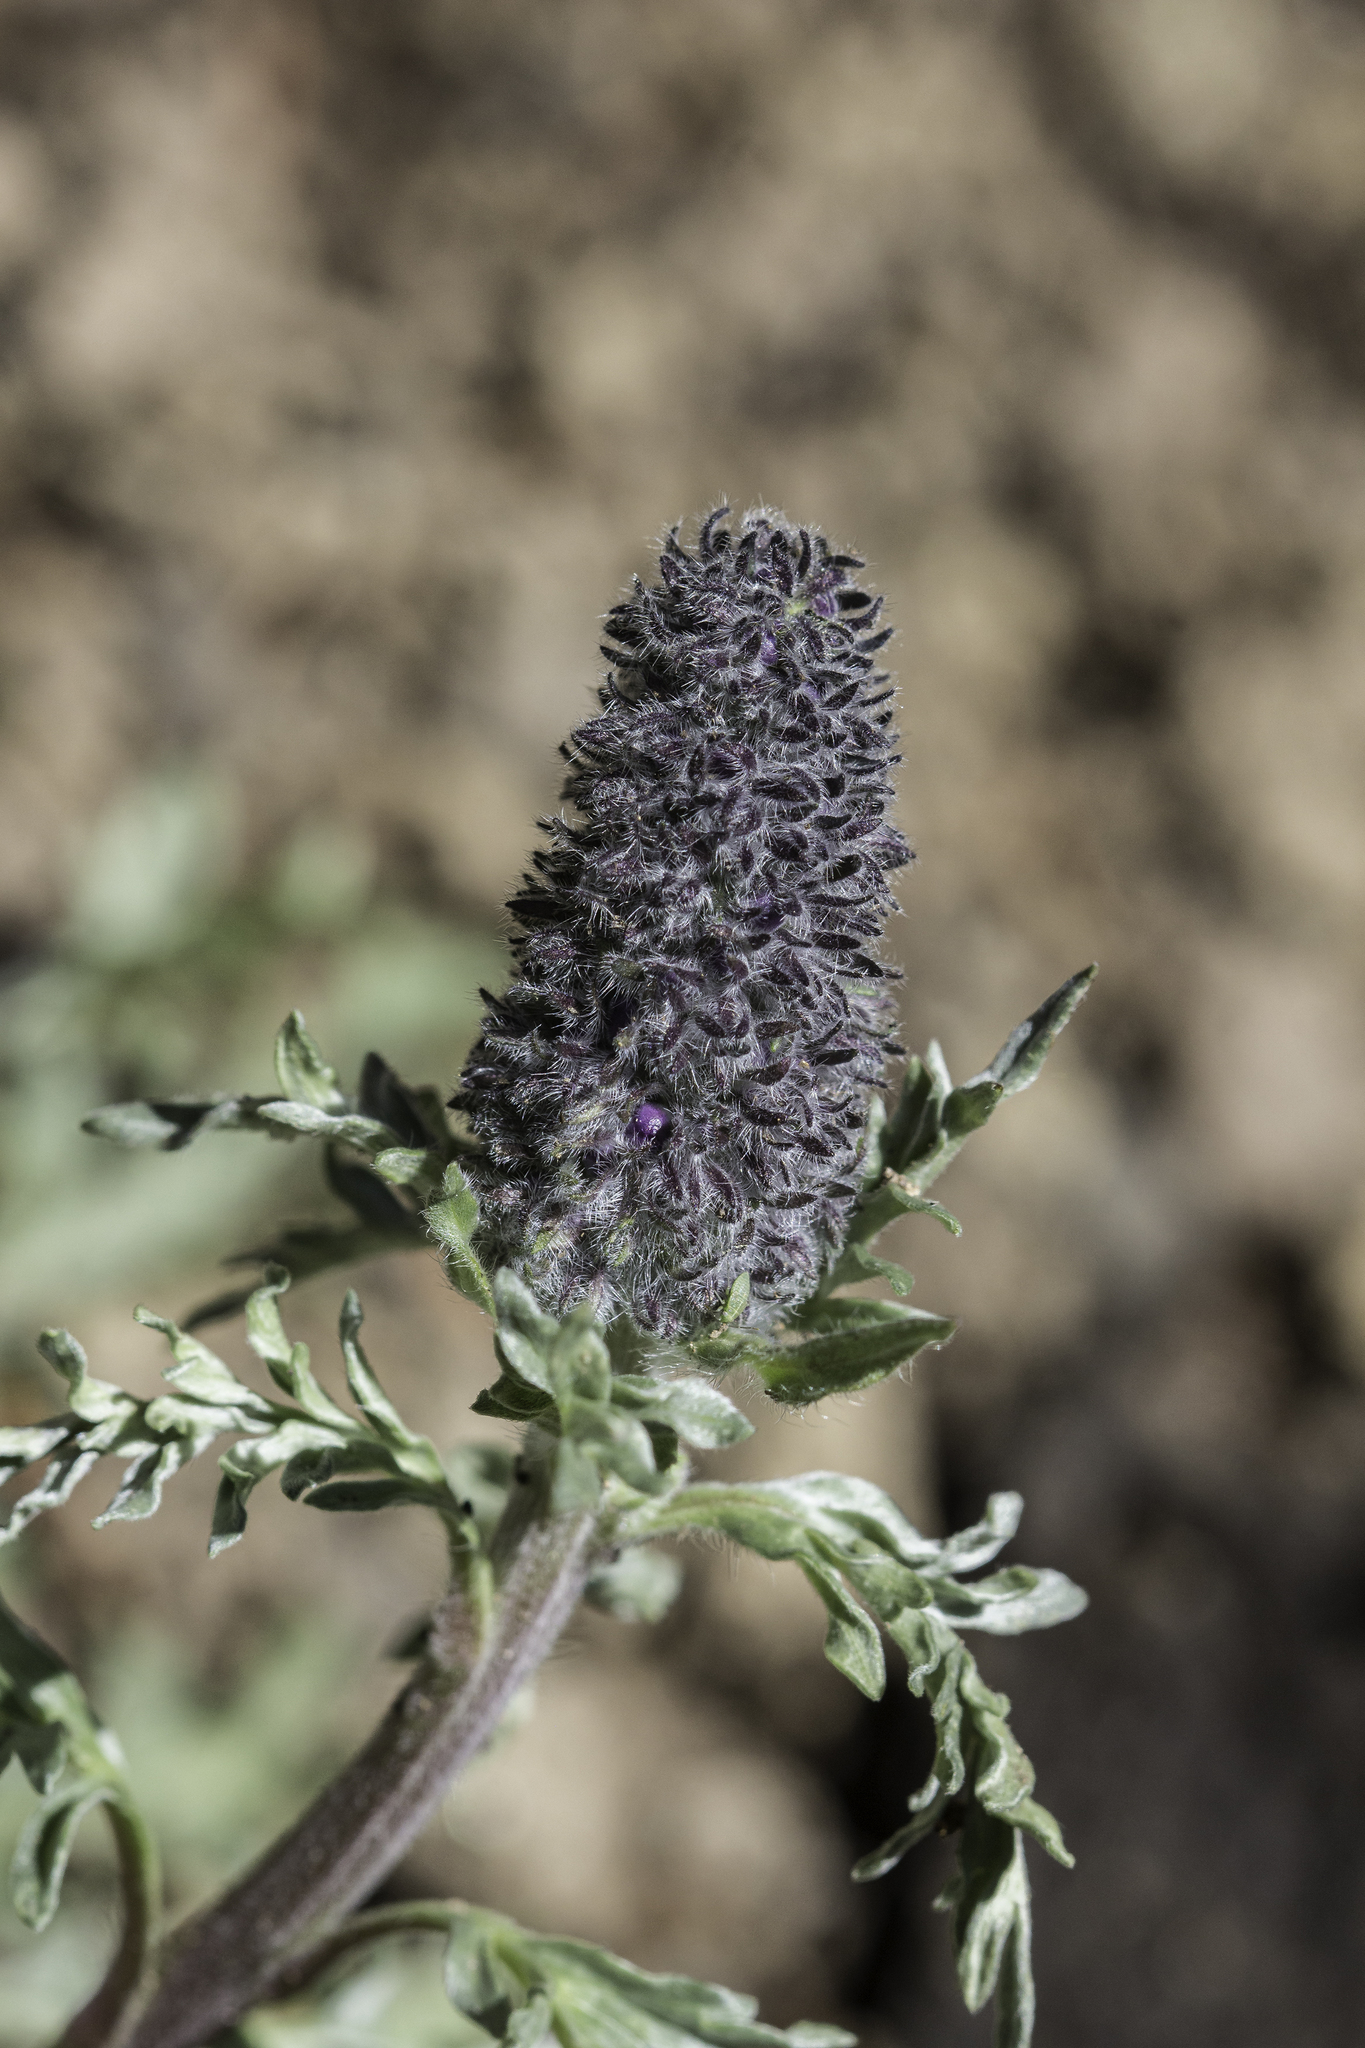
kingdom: Plantae
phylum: Tracheophyta
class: Magnoliopsida
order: Boraginales
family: Hydrophyllaceae
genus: Phacelia
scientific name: Phacelia sericea
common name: Silky phacelia
